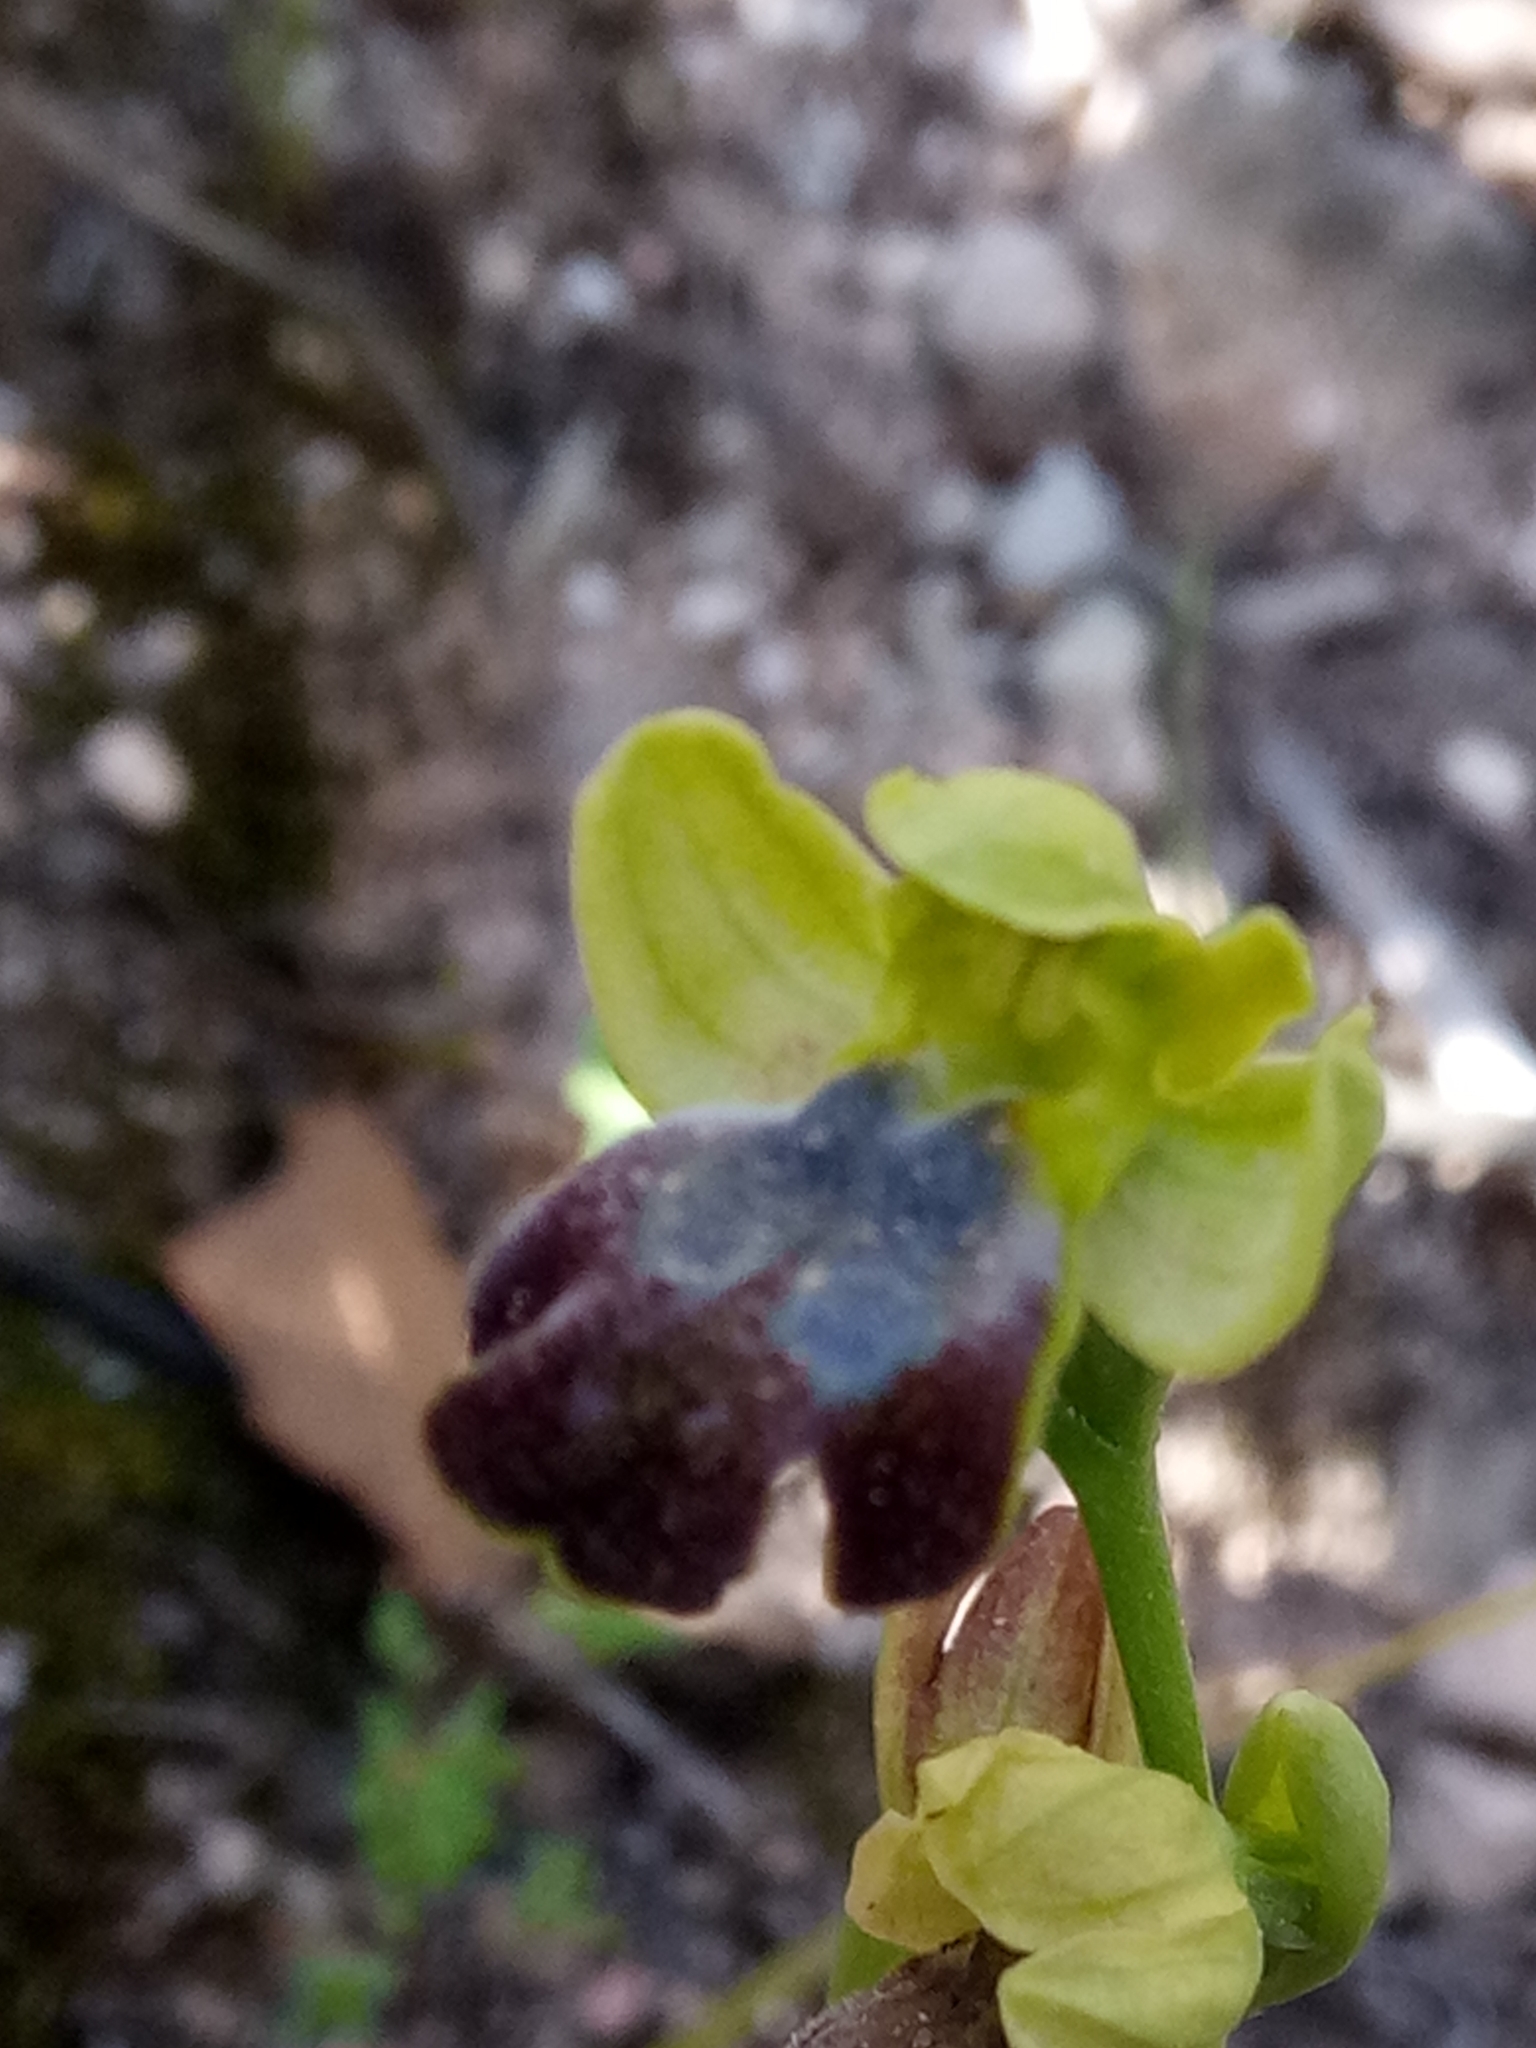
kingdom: Plantae
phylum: Tracheophyta
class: Liliopsida
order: Asparagales
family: Orchidaceae
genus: Ophrys
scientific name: Ophrys fusca
